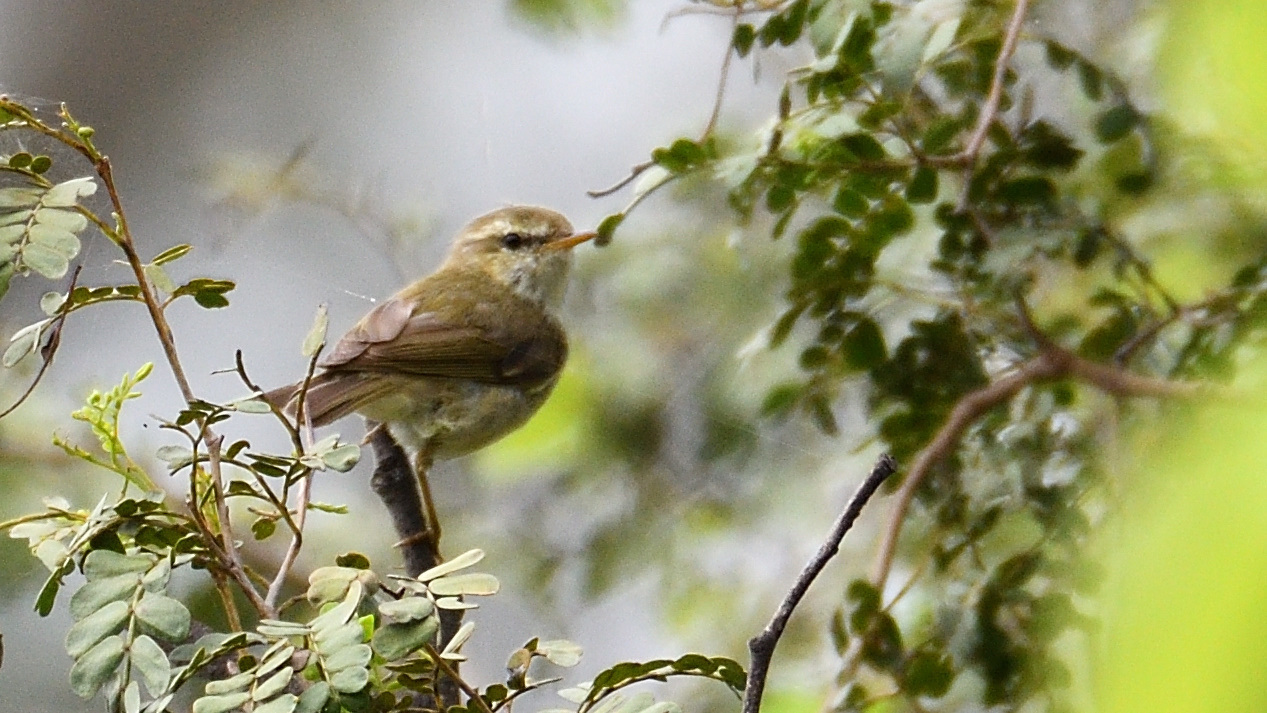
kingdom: Animalia
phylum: Chordata
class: Aves
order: Passeriformes
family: Phylloscopidae
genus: Phylloscopus
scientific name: Phylloscopus trochiloides
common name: Greenish warbler
